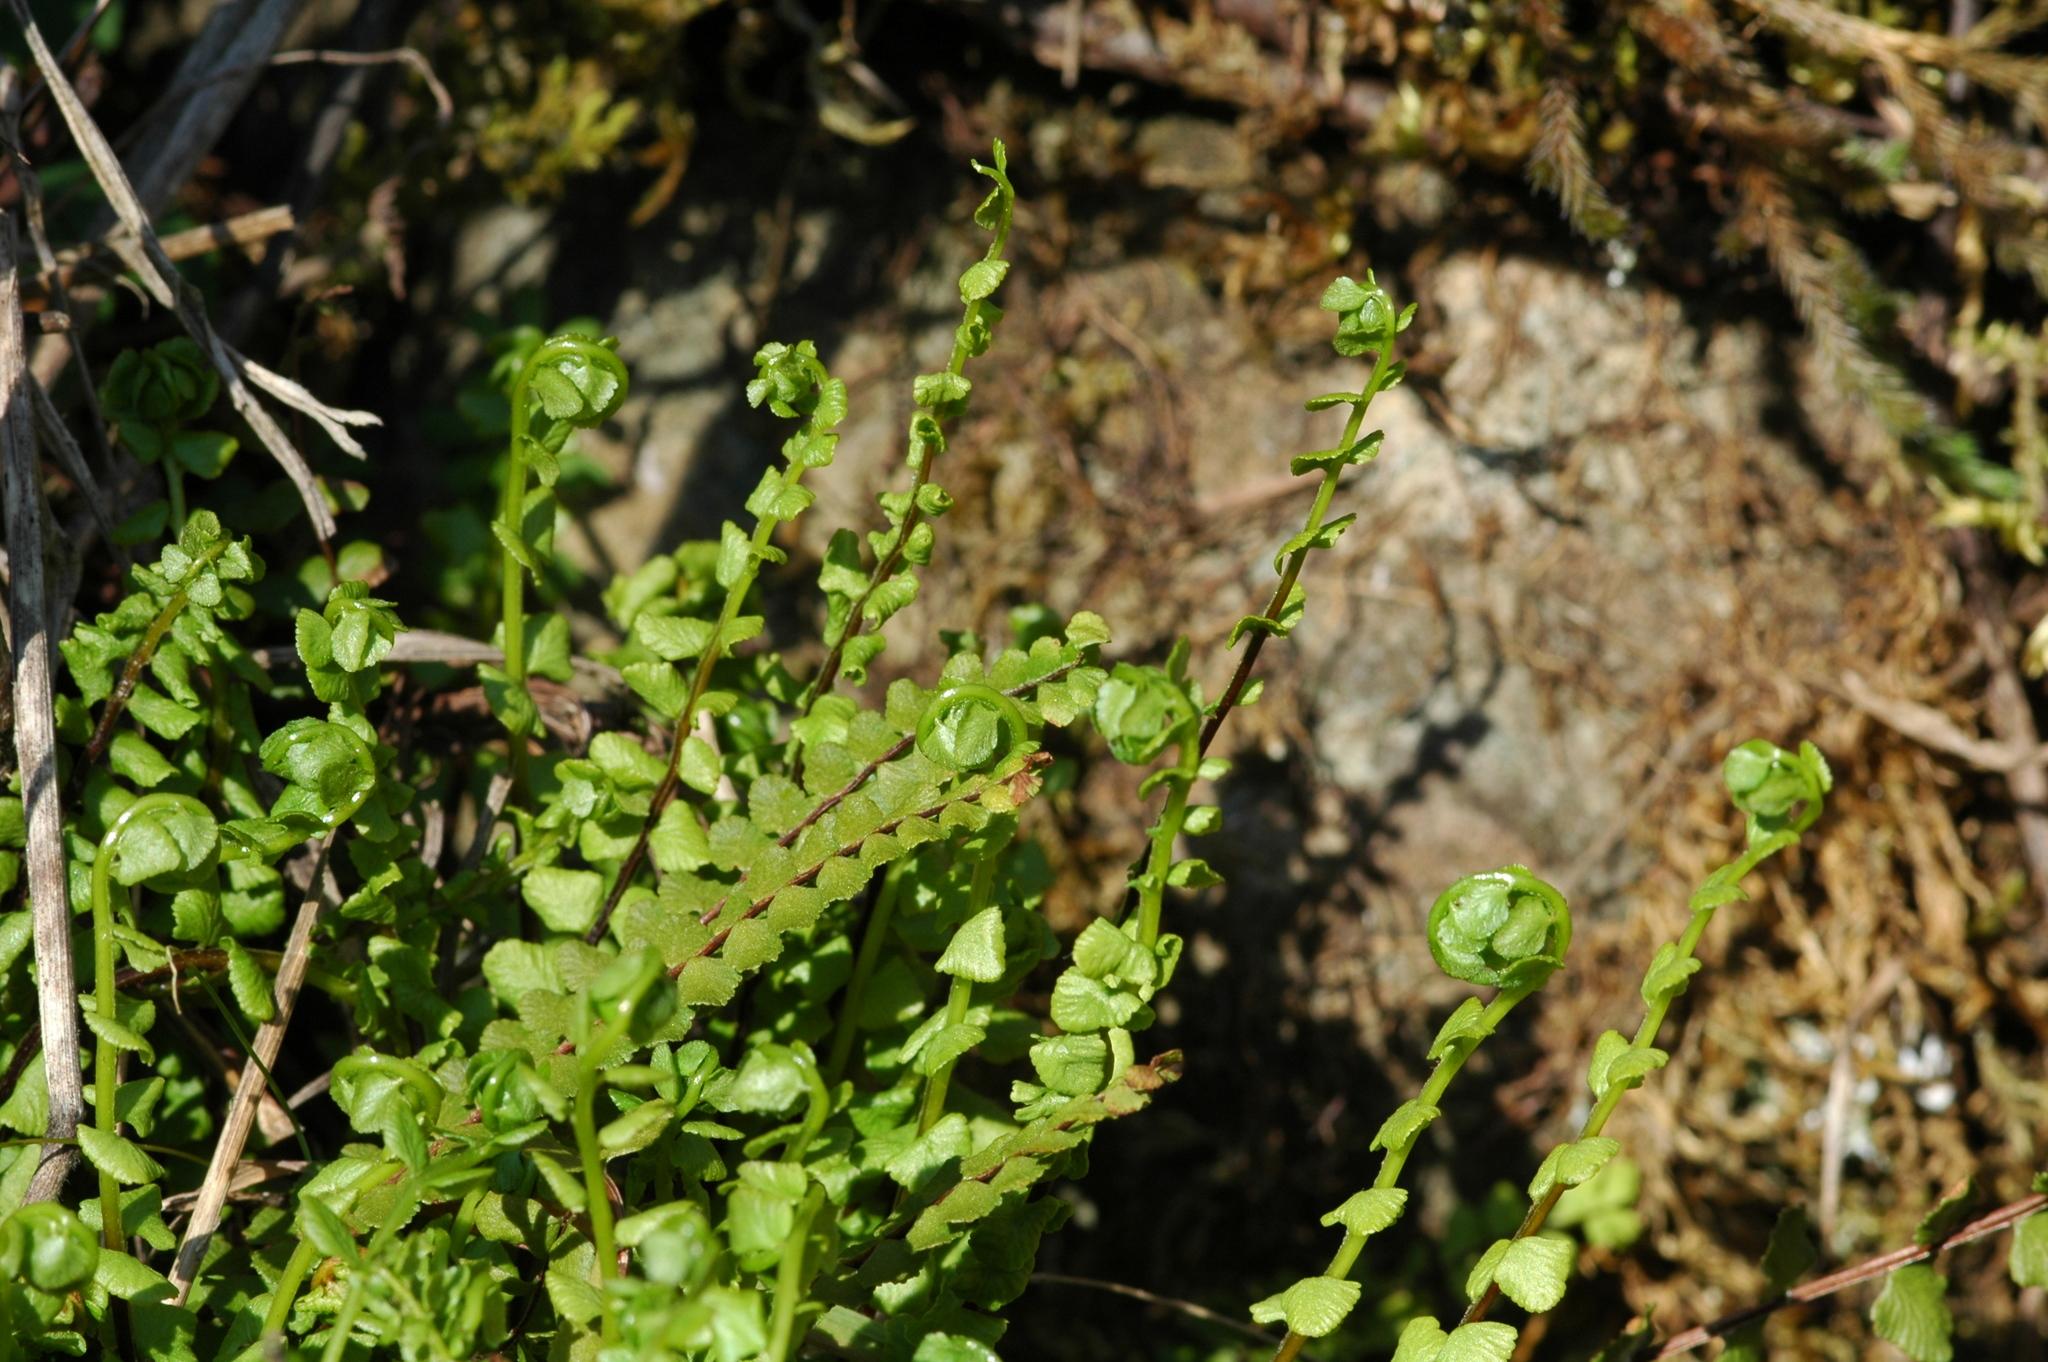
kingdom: Plantae
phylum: Tracheophyta
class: Polypodiopsida
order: Polypodiales
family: Aspleniaceae
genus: Asplenium
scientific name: Asplenium trichomanes
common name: Maidenhair spleenwort
